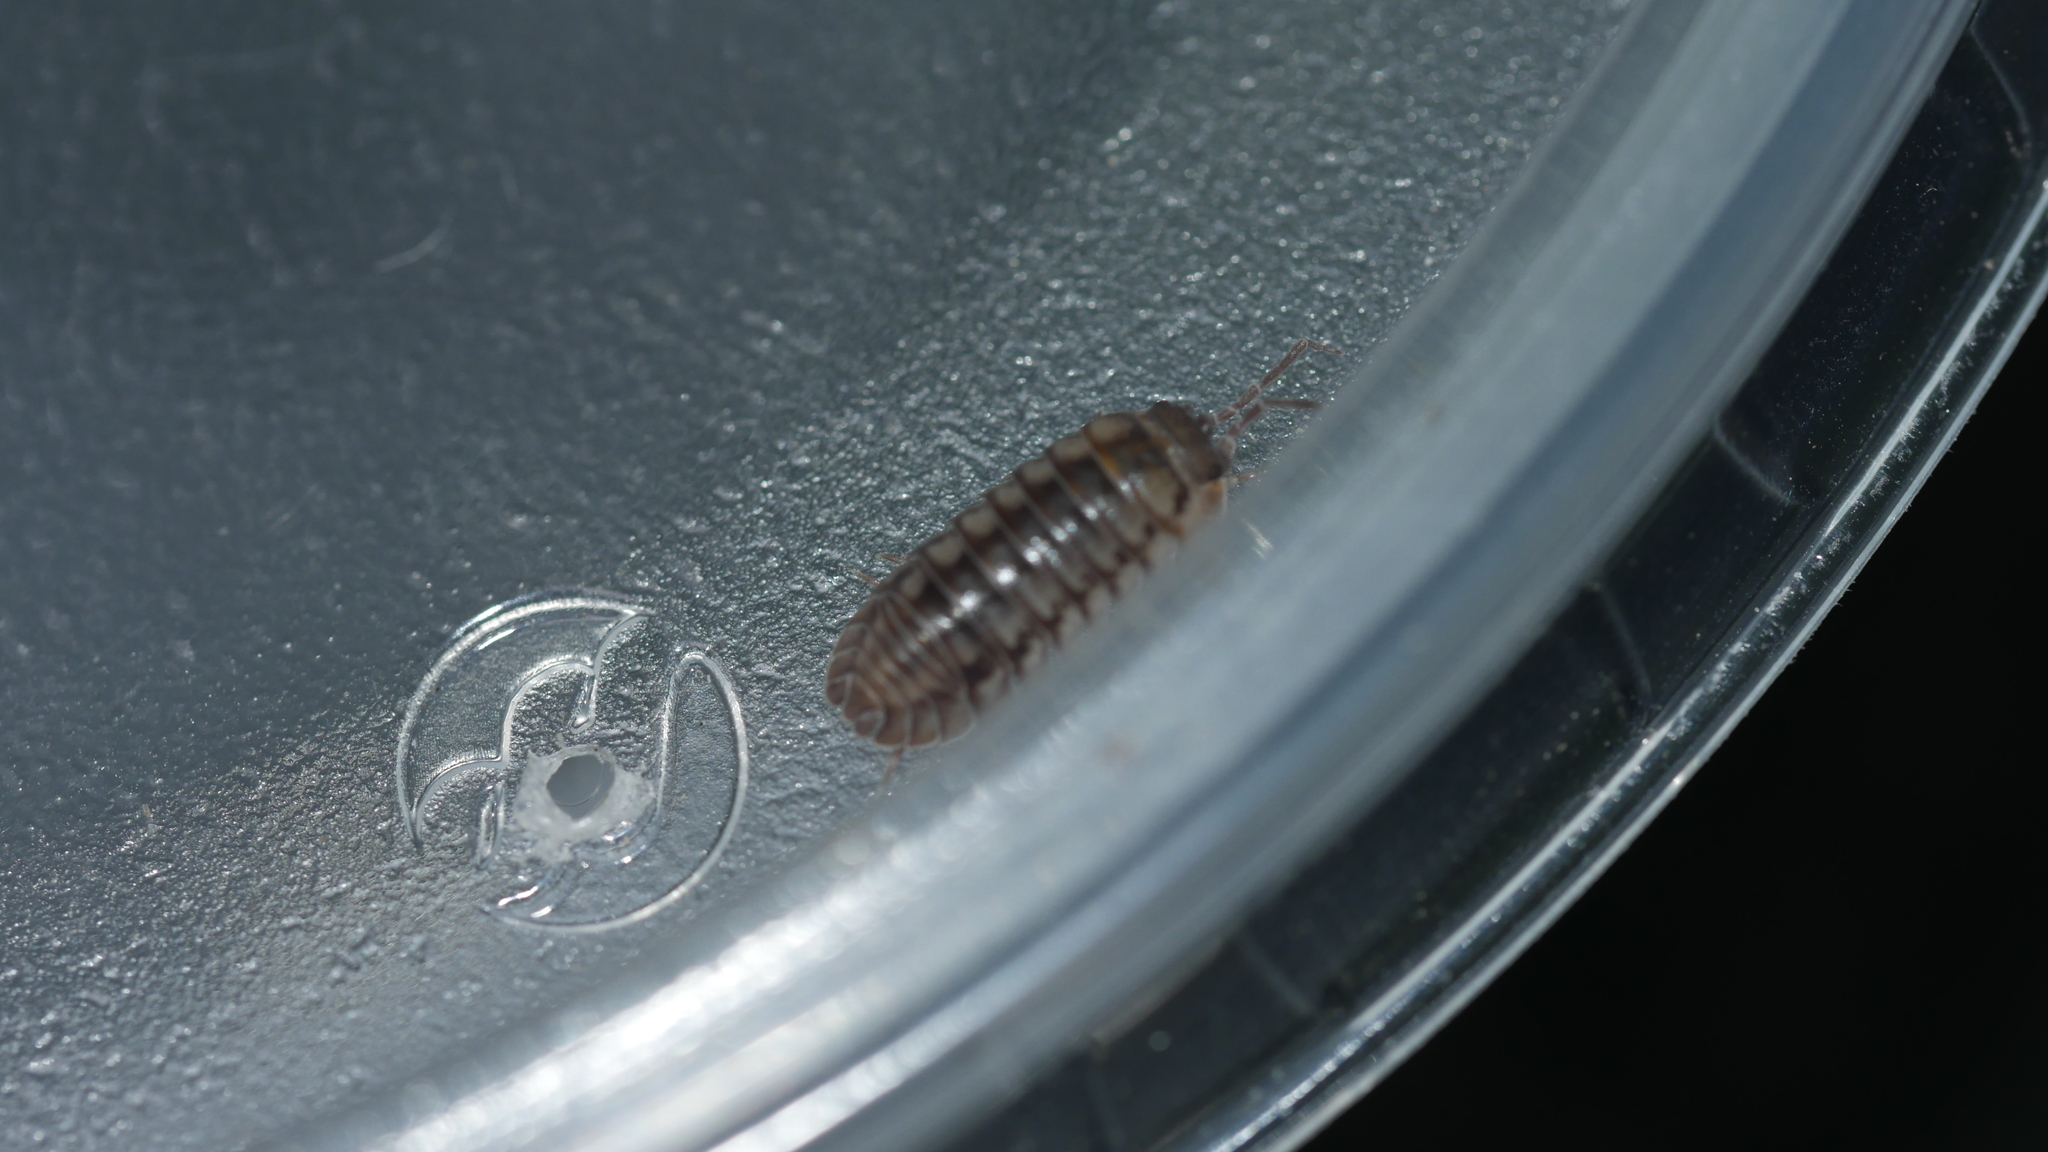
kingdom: Animalia
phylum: Arthropoda
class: Malacostraca
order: Isopoda
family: Armadillidiidae
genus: Armadillidium
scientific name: Armadillidium nasatum
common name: Isopod
